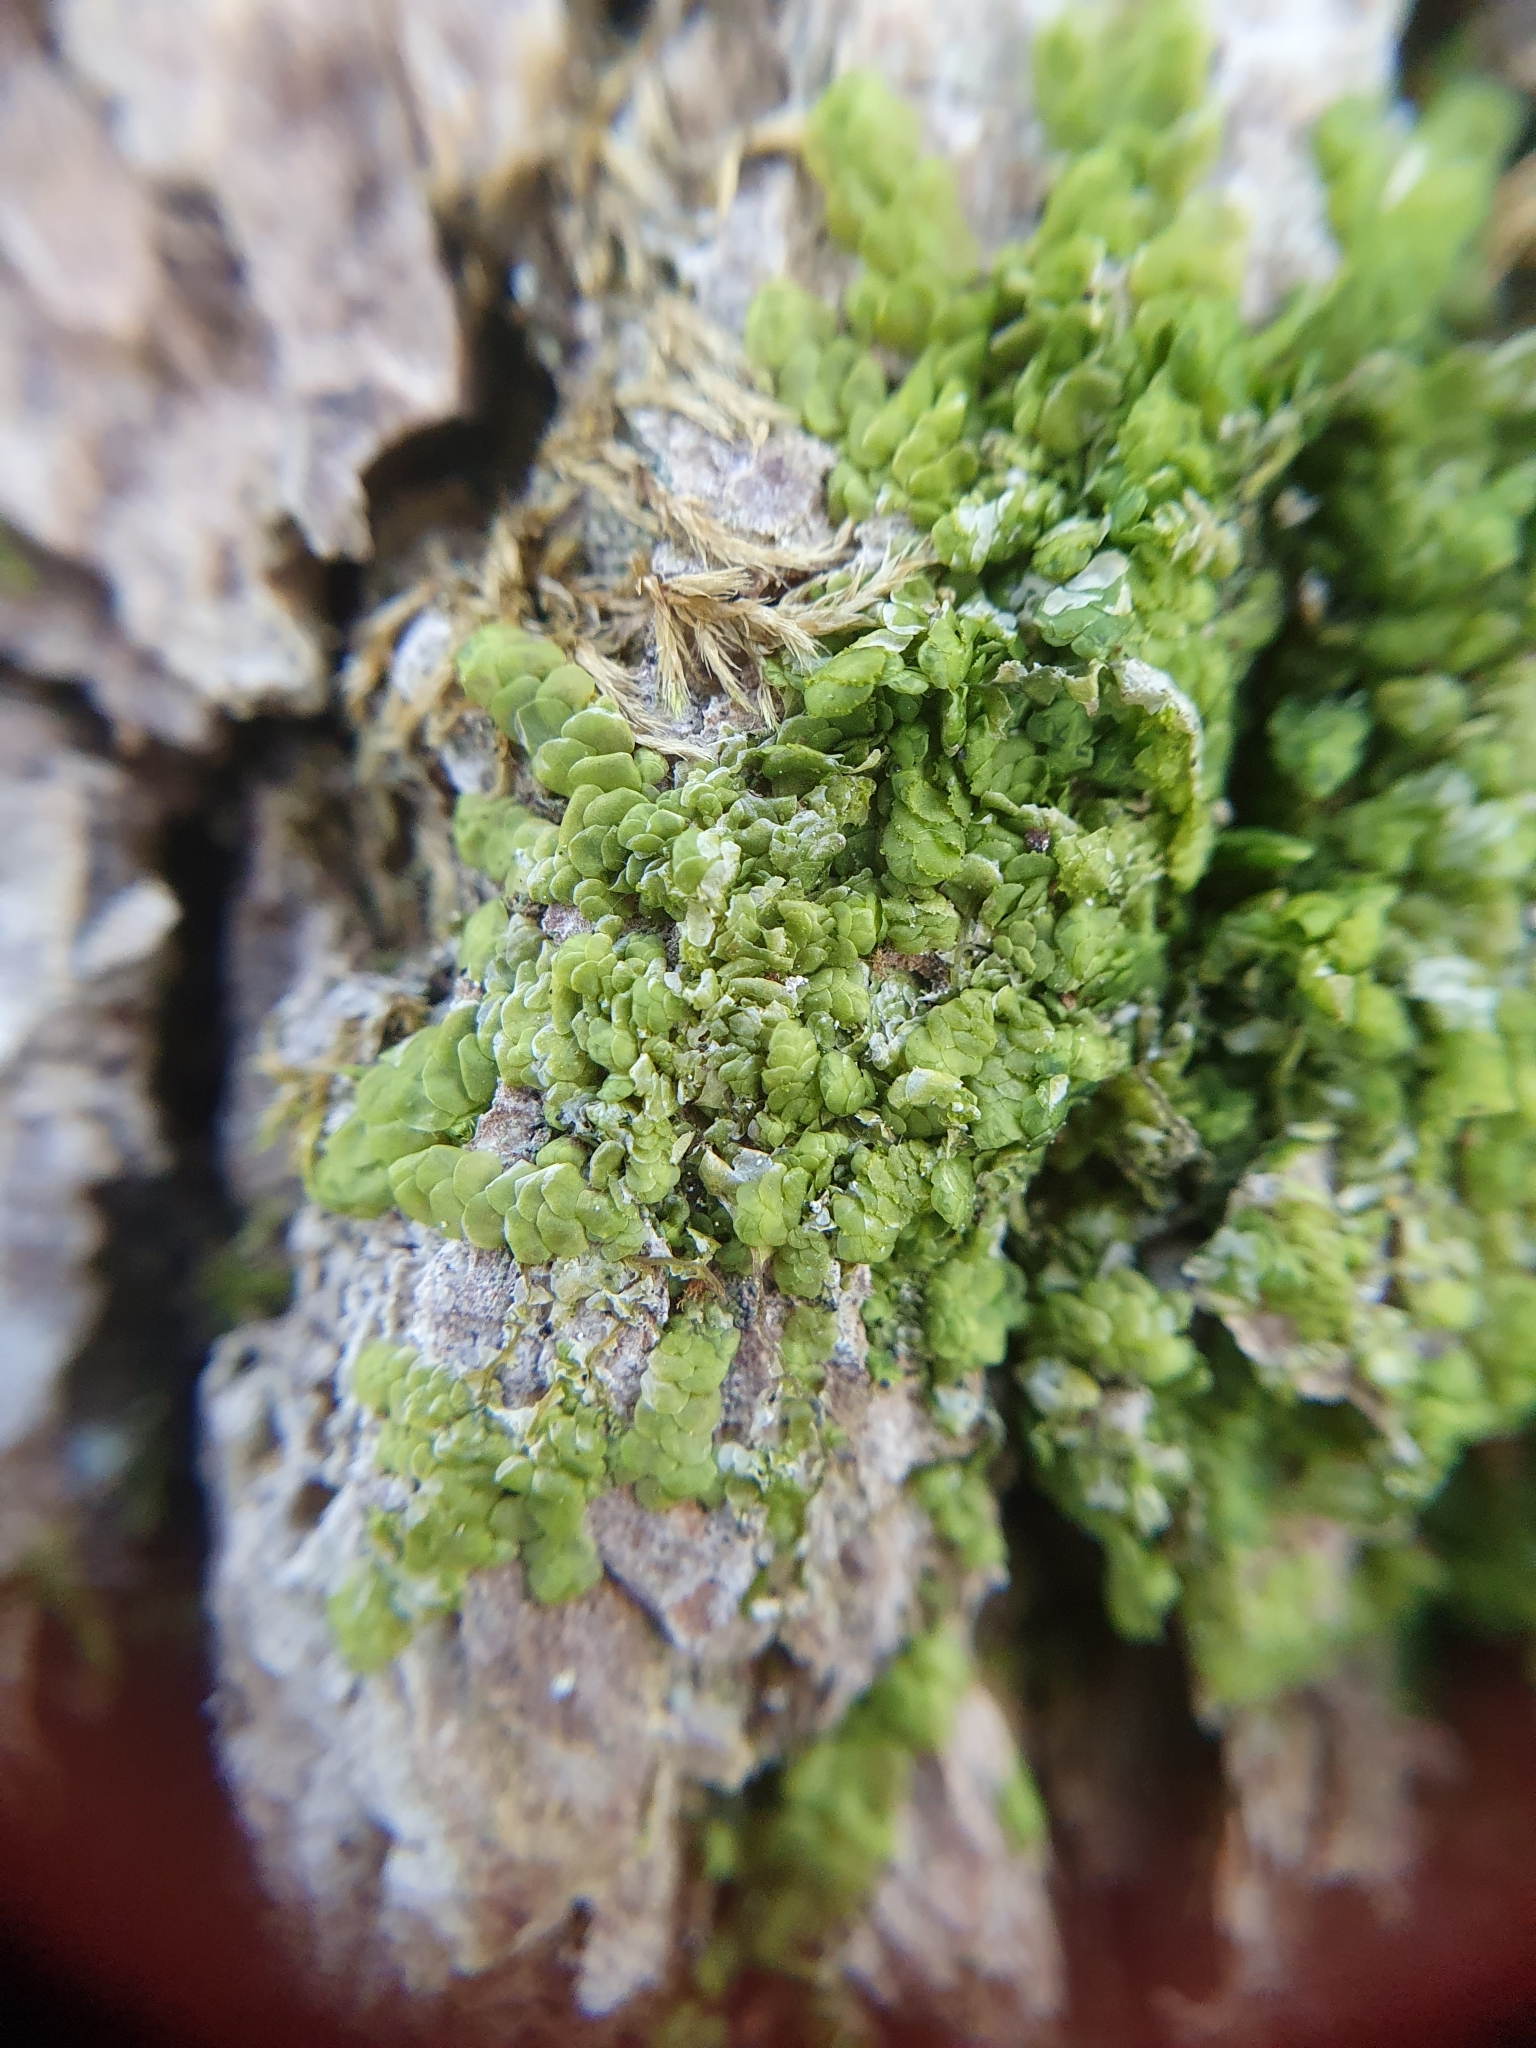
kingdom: Plantae
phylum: Marchantiophyta
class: Jungermanniopsida
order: Porellales
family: Radulaceae
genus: Radula
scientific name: Radula complanata
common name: Flat-leaved scalewort
